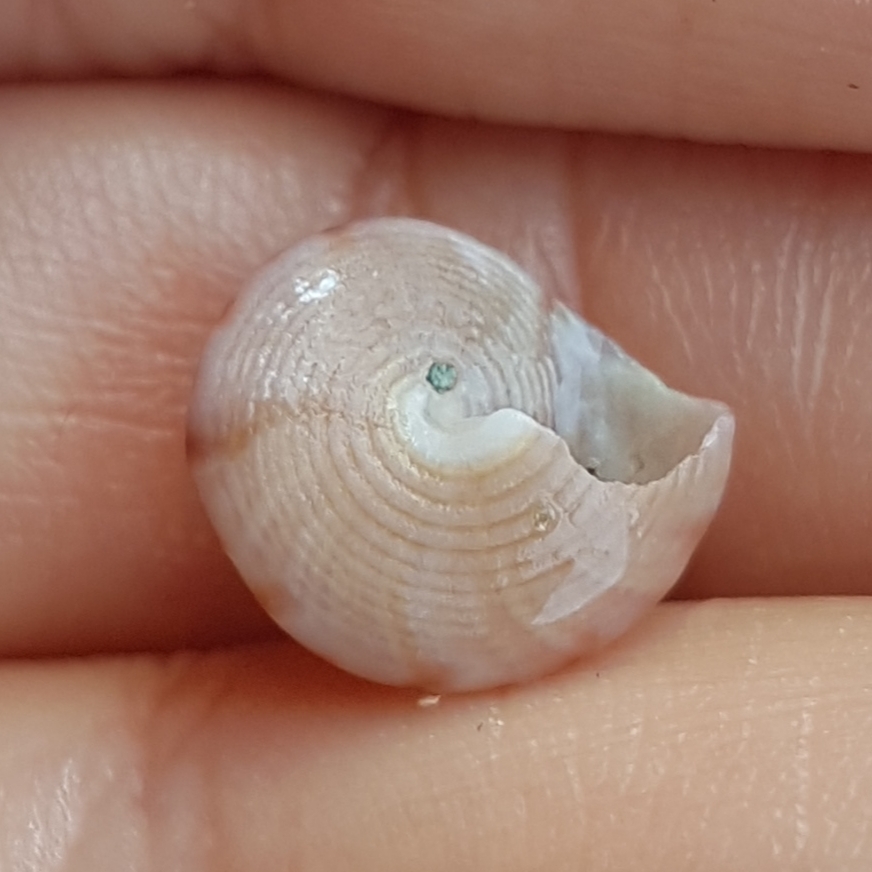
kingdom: Animalia
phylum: Mollusca
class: Gastropoda
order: Trochida
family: Calliostomatidae
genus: Calliostoma
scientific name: Calliostoma zizyphinum
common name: Painted top shell
